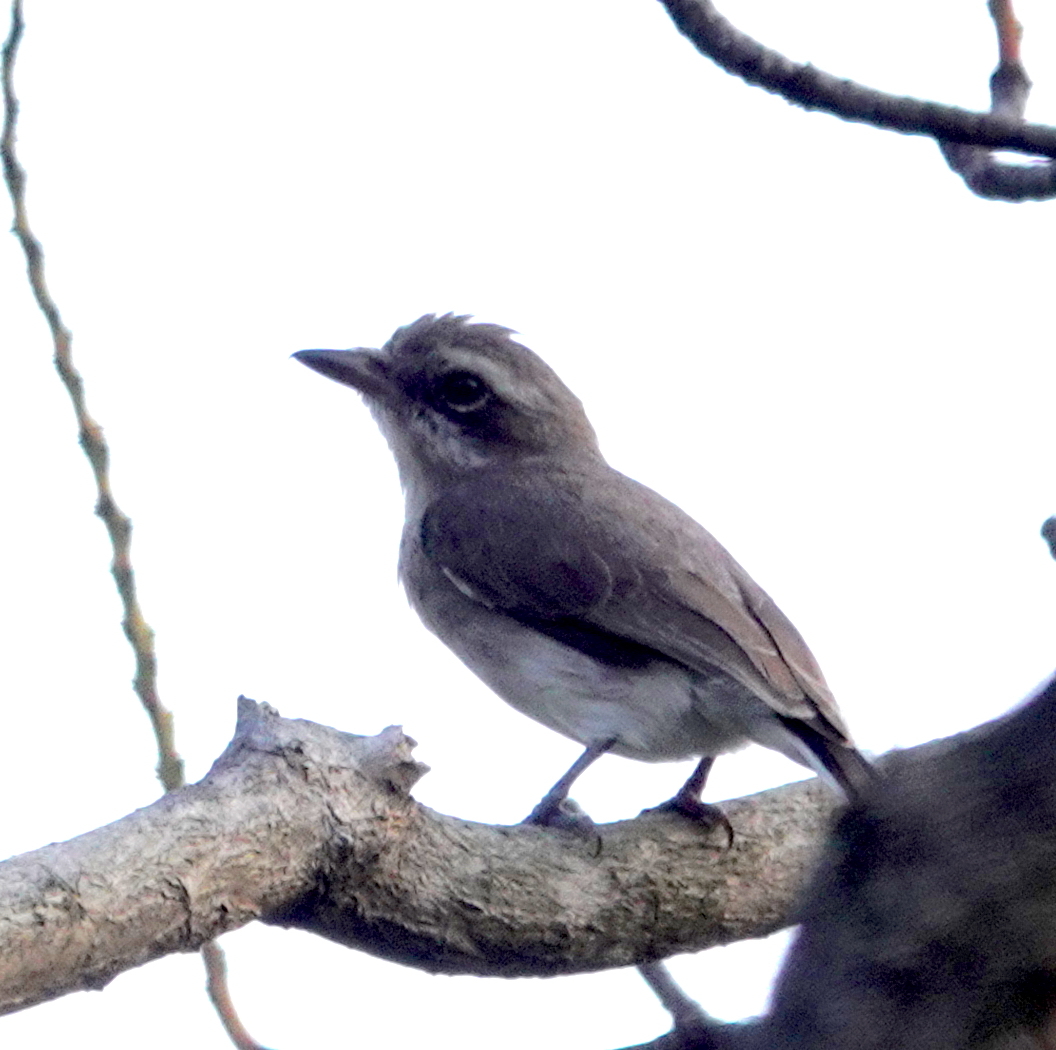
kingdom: Animalia
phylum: Chordata
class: Aves
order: Passeriformes
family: Tephrodornithidae
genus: Tephrodornis
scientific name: Tephrodornis affinis
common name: Sri lanka woodshrike
